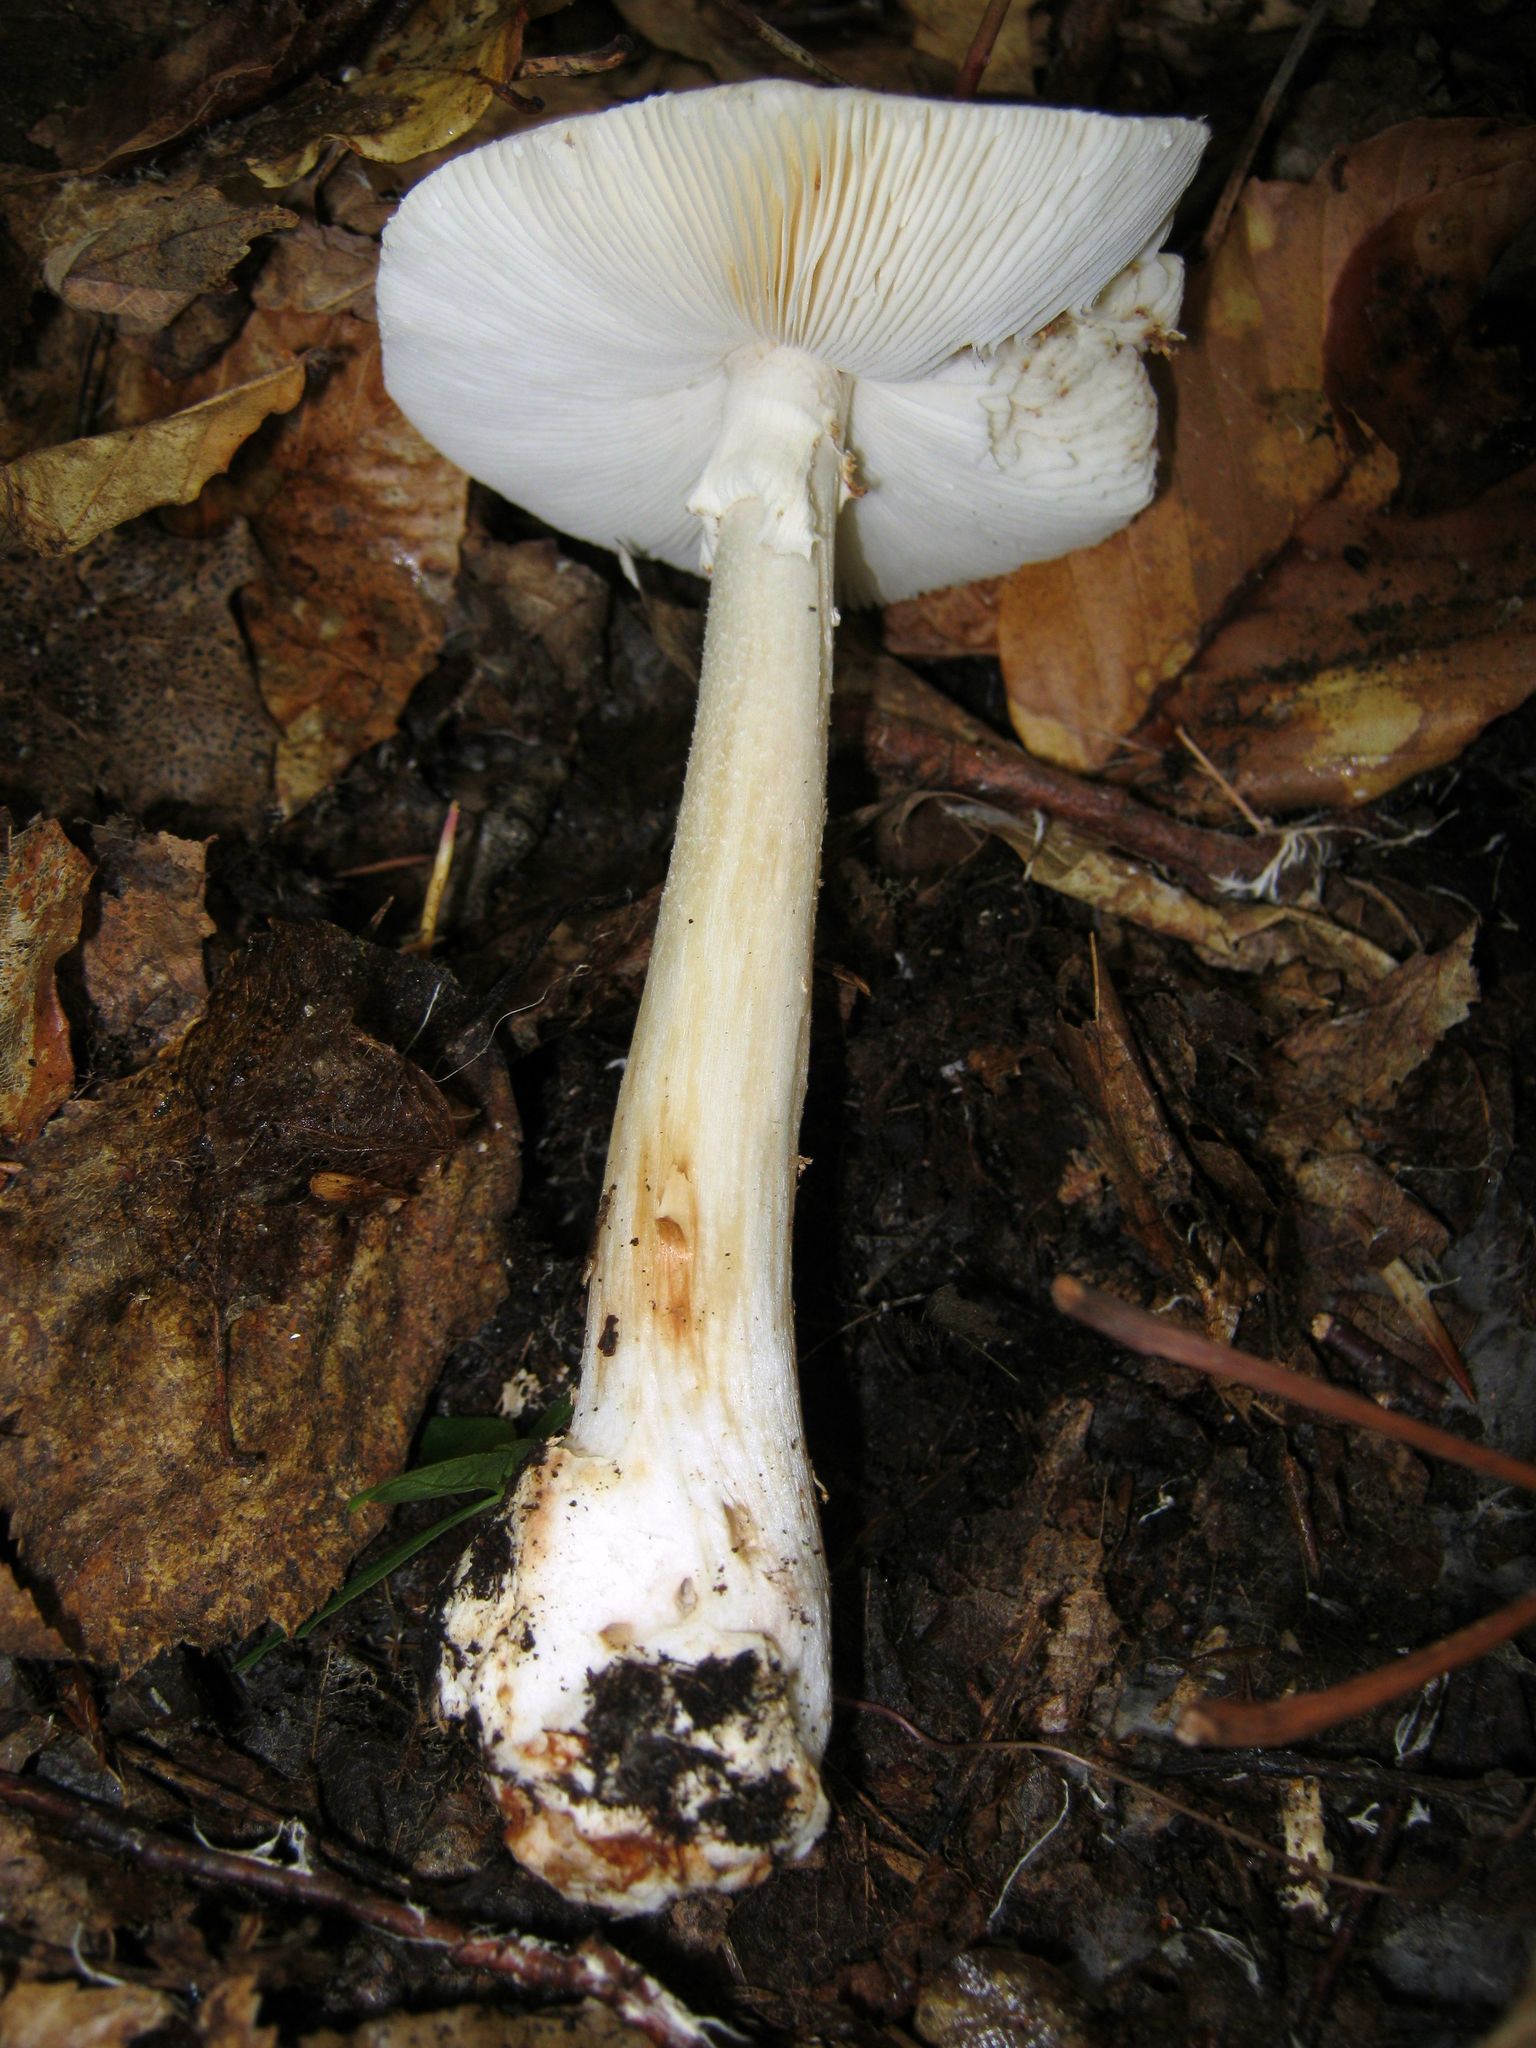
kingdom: Fungi
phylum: Basidiomycota
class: Agaricomycetes
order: Agaricales
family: Amanitaceae
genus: Amanita
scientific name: Amanita brunnescens
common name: Brown american star-footed amanita
